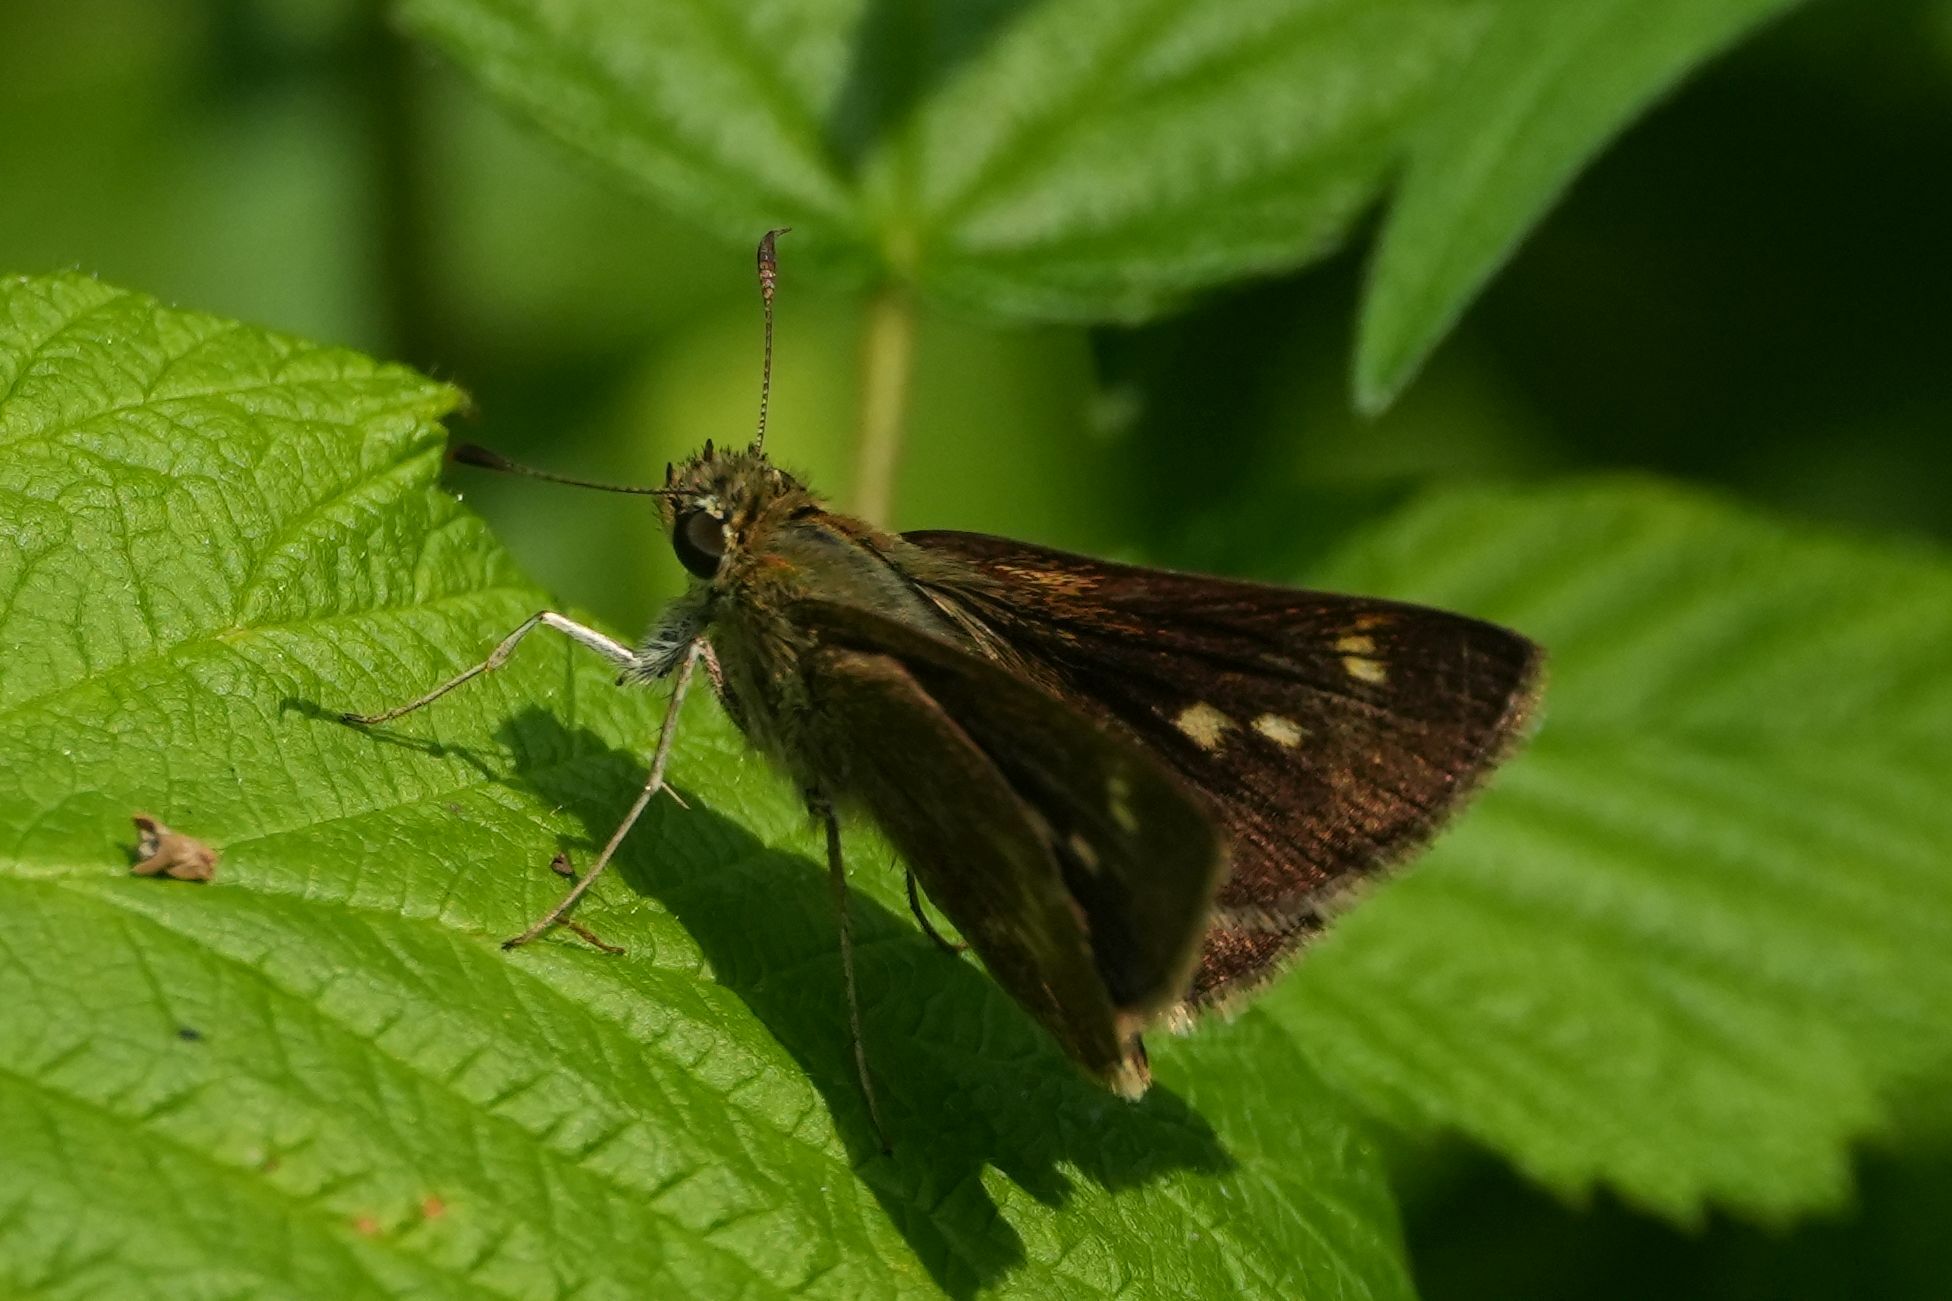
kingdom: Animalia
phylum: Arthropoda
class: Insecta
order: Lepidoptera
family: Hesperiidae
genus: Polites
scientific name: Polites egeremet
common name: Northern broken-dash
